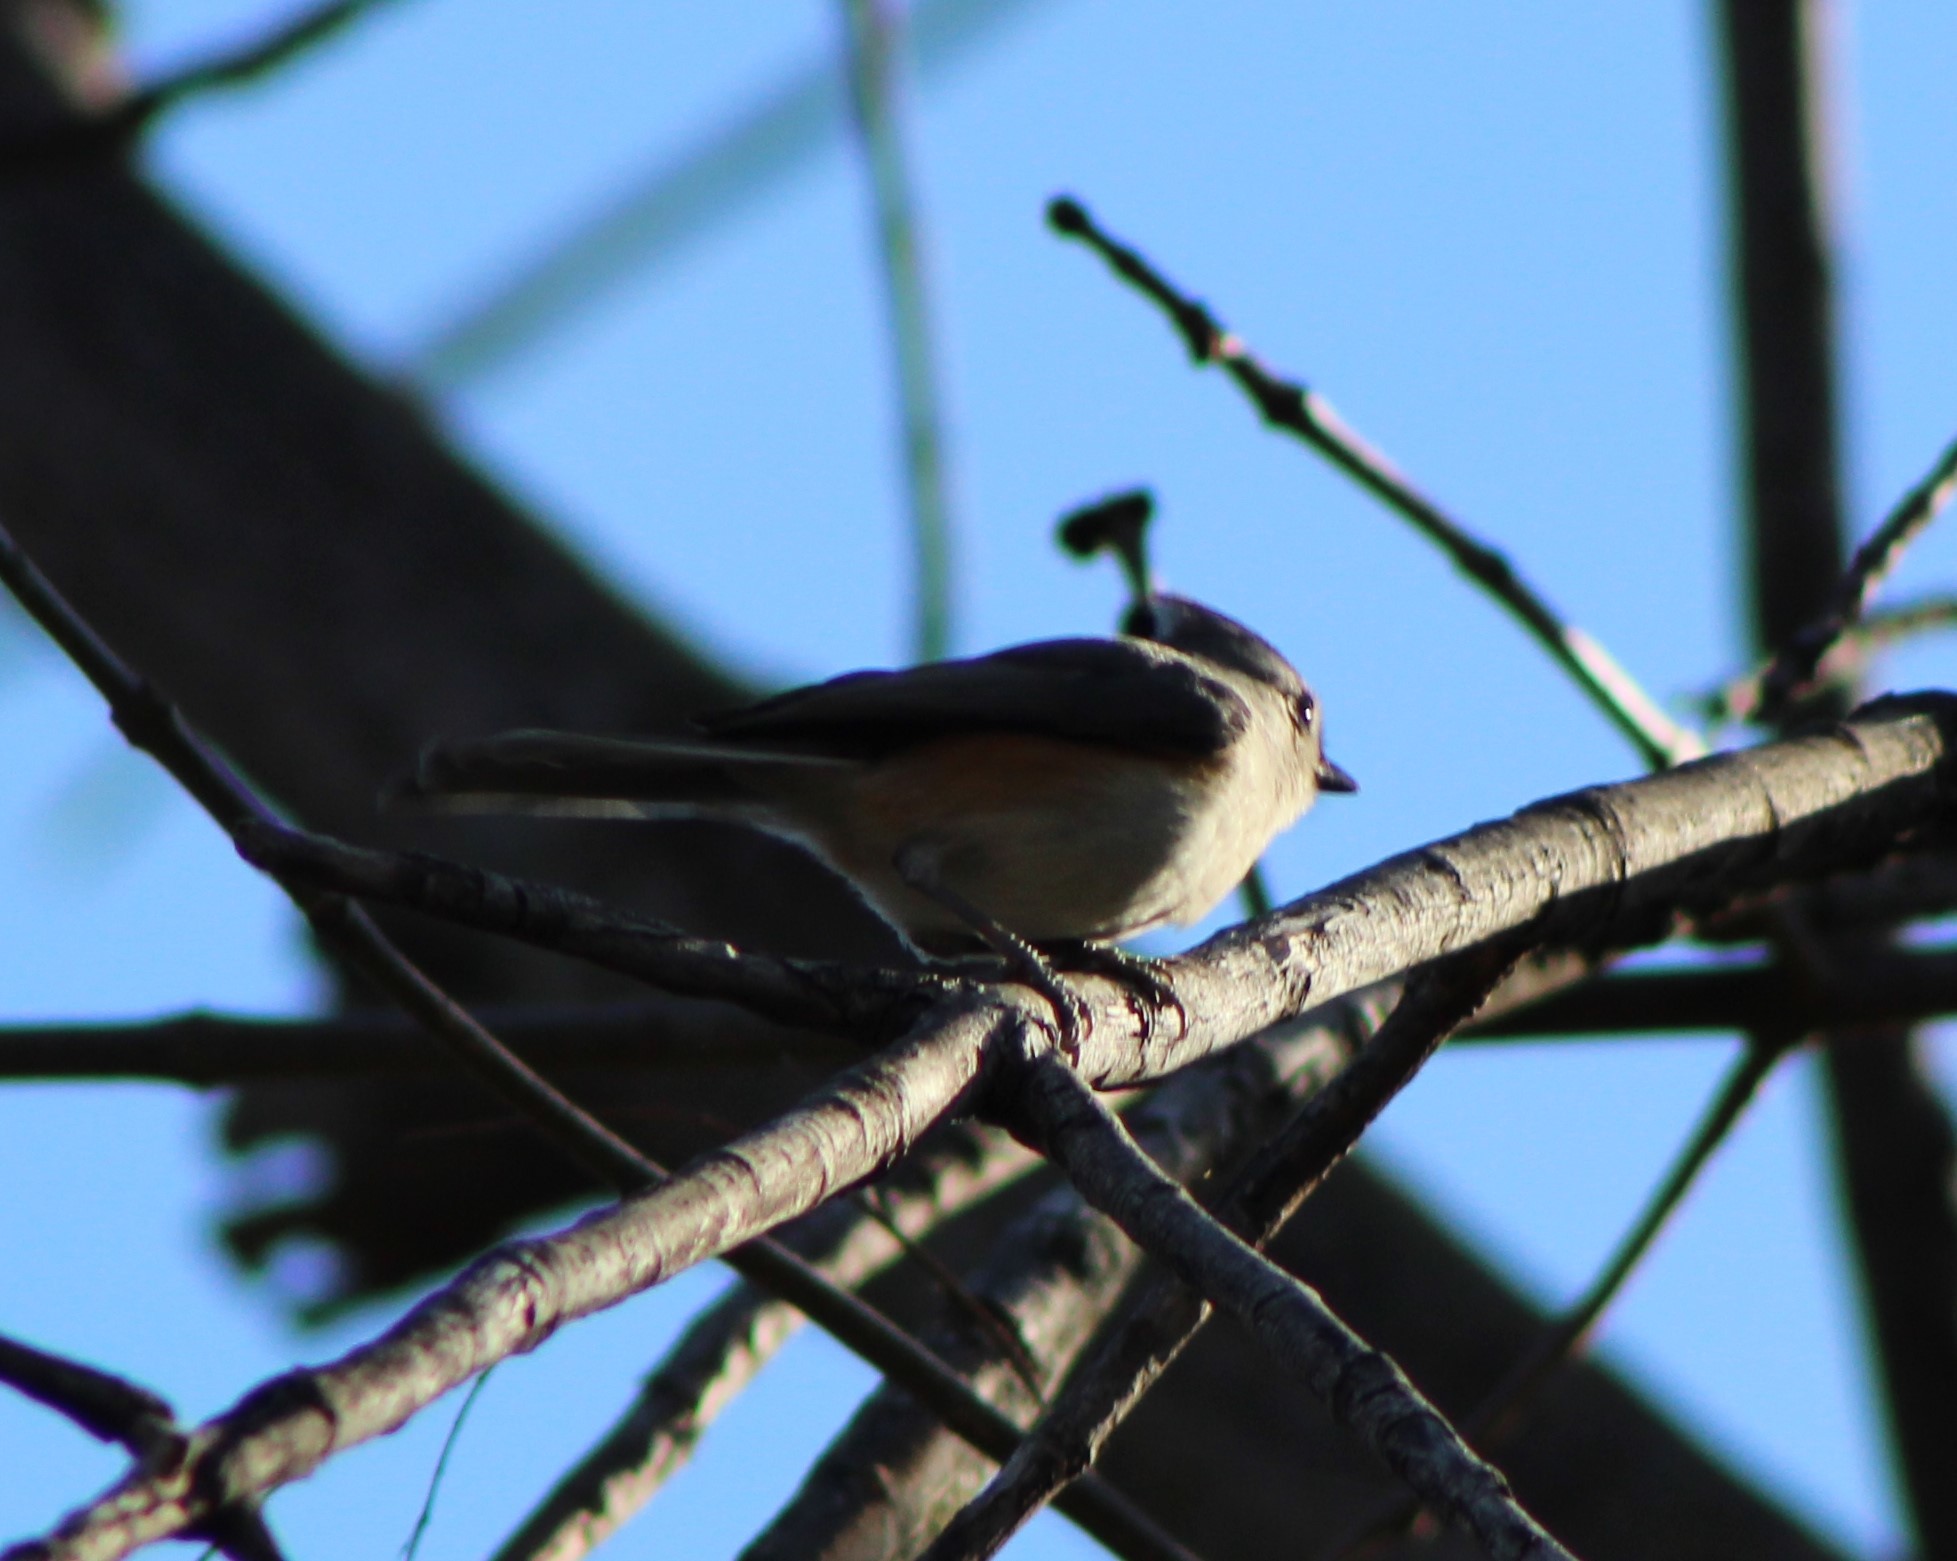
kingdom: Animalia
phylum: Chordata
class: Aves
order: Passeriformes
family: Paridae
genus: Baeolophus
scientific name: Baeolophus bicolor
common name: Tufted titmouse
